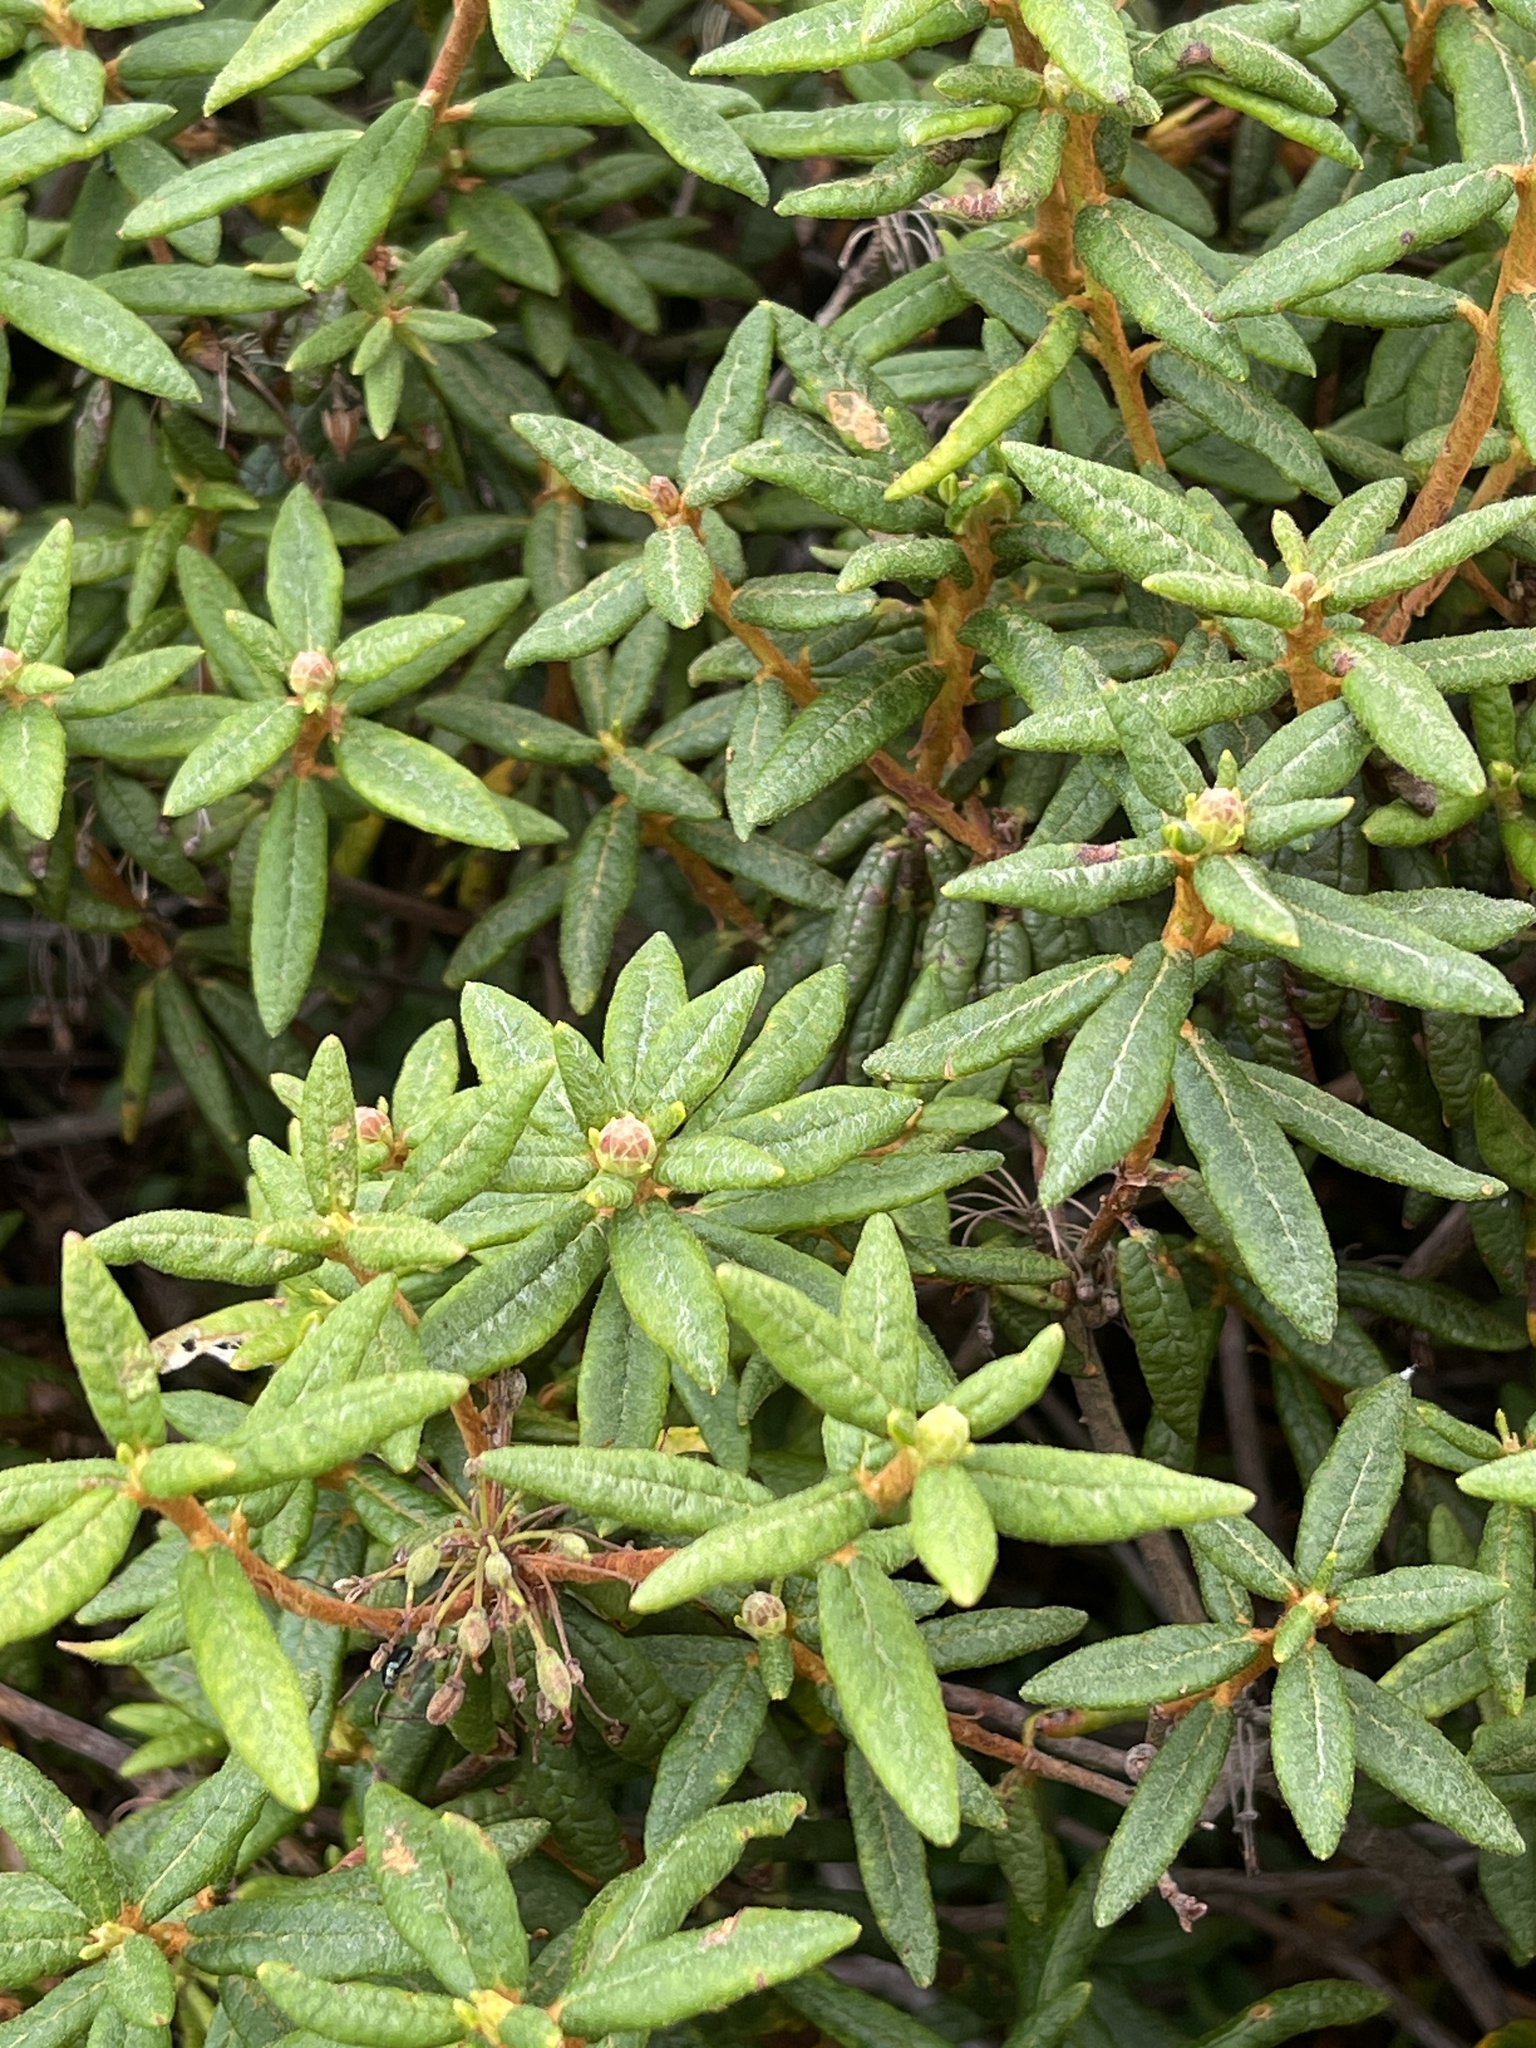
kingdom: Plantae
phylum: Tracheophyta
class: Magnoliopsida
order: Ericales
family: Ericaceae
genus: Rhododendron
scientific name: Rhododendron groenlandicum
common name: Bog labrador tea
